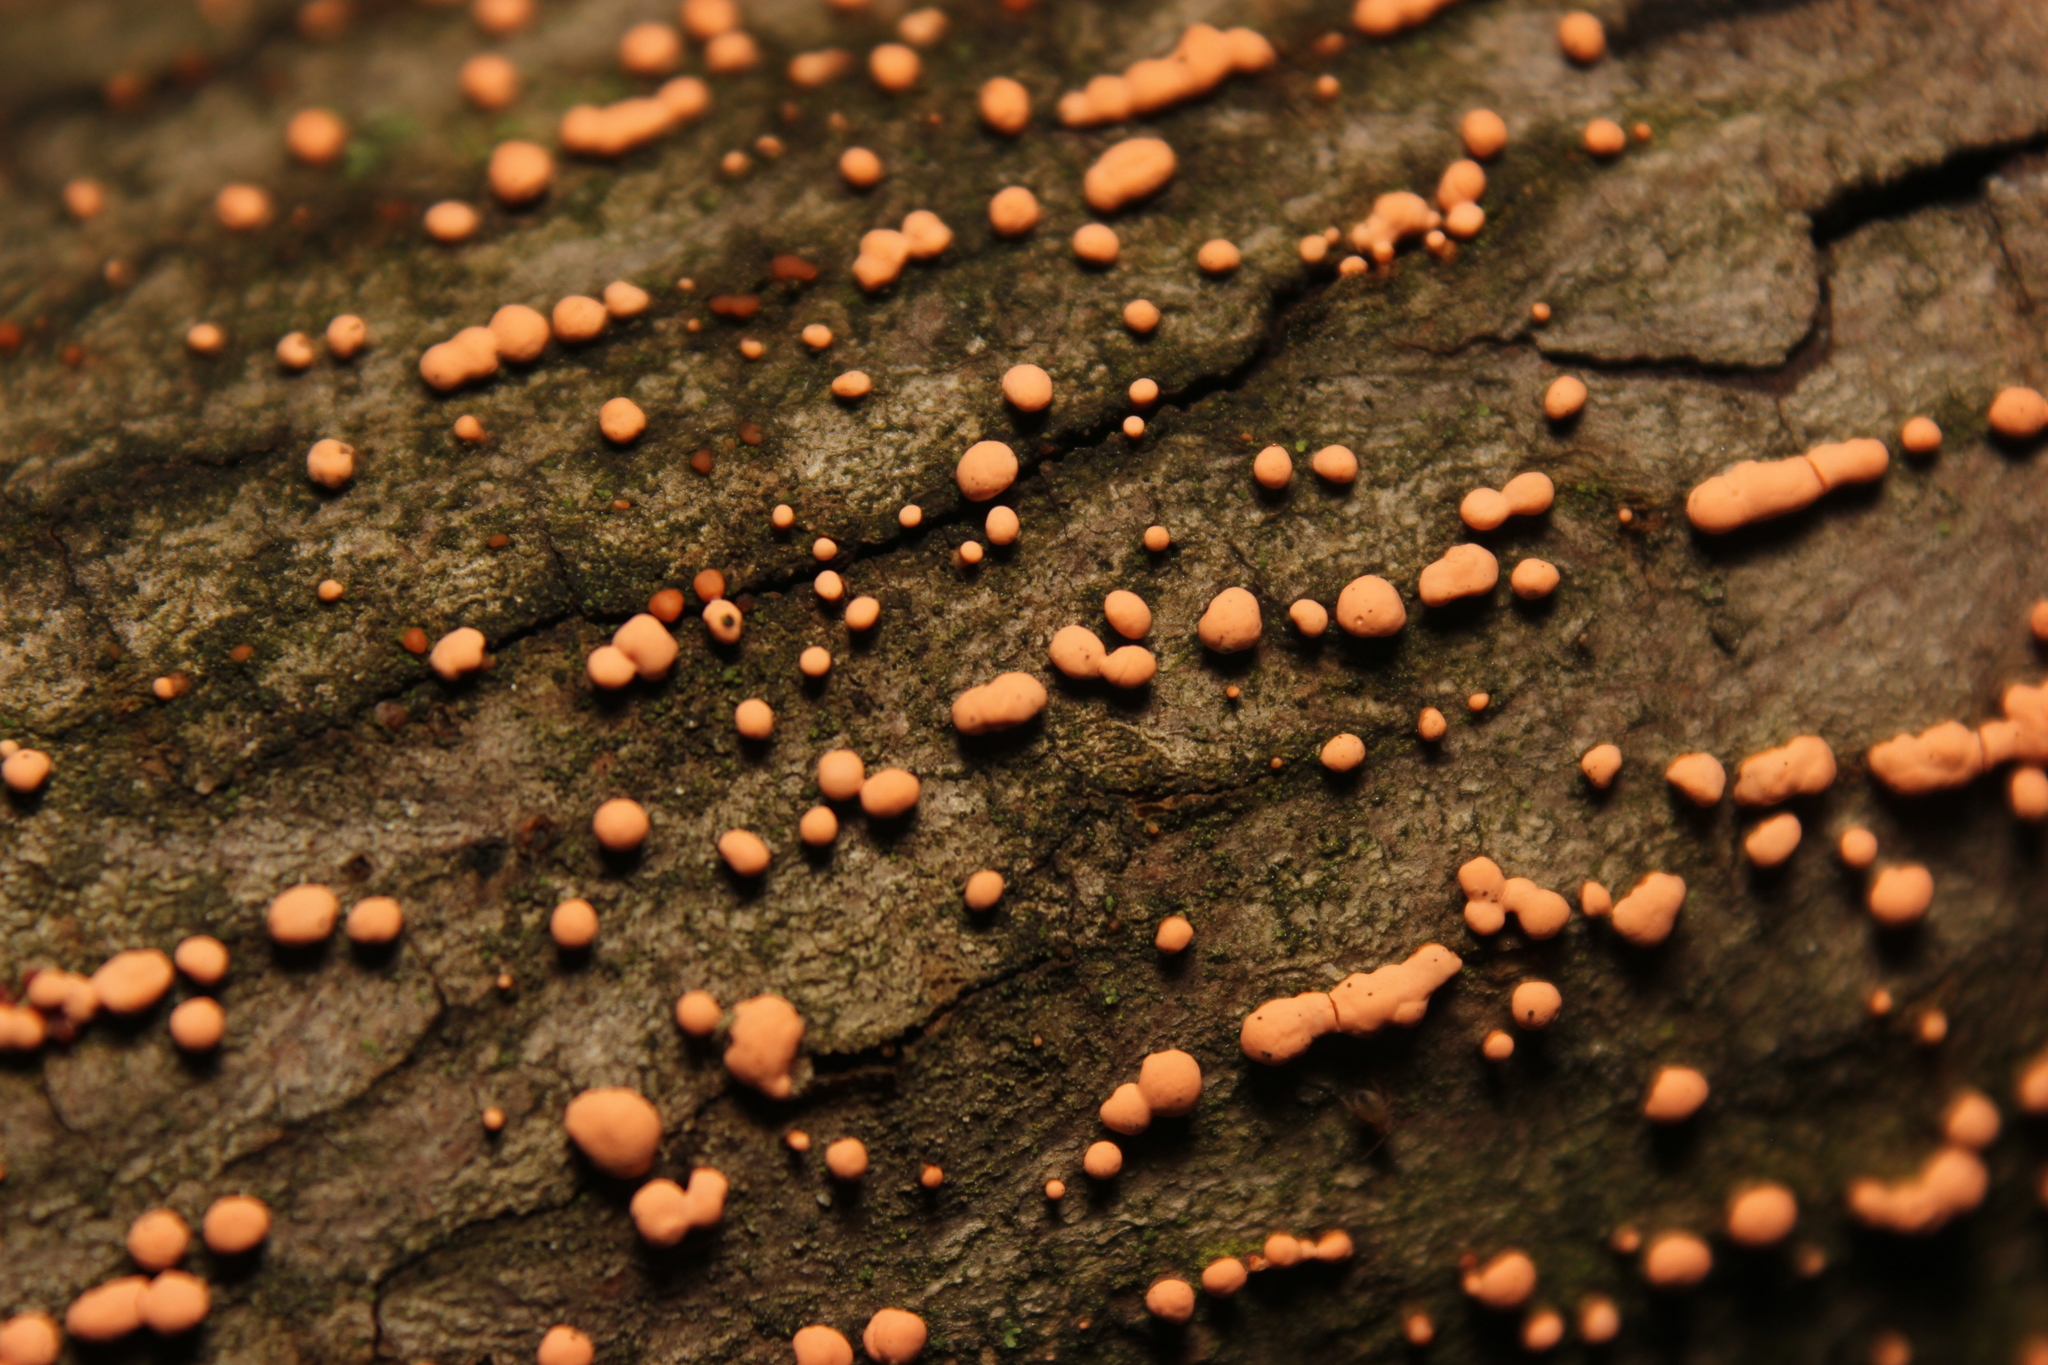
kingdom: Fungi
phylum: Ascomycota
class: Sordariomycetes
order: Hypocreales
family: Nectriaceae
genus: Nectria
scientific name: Nectria cinnabarina
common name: Coral spot
